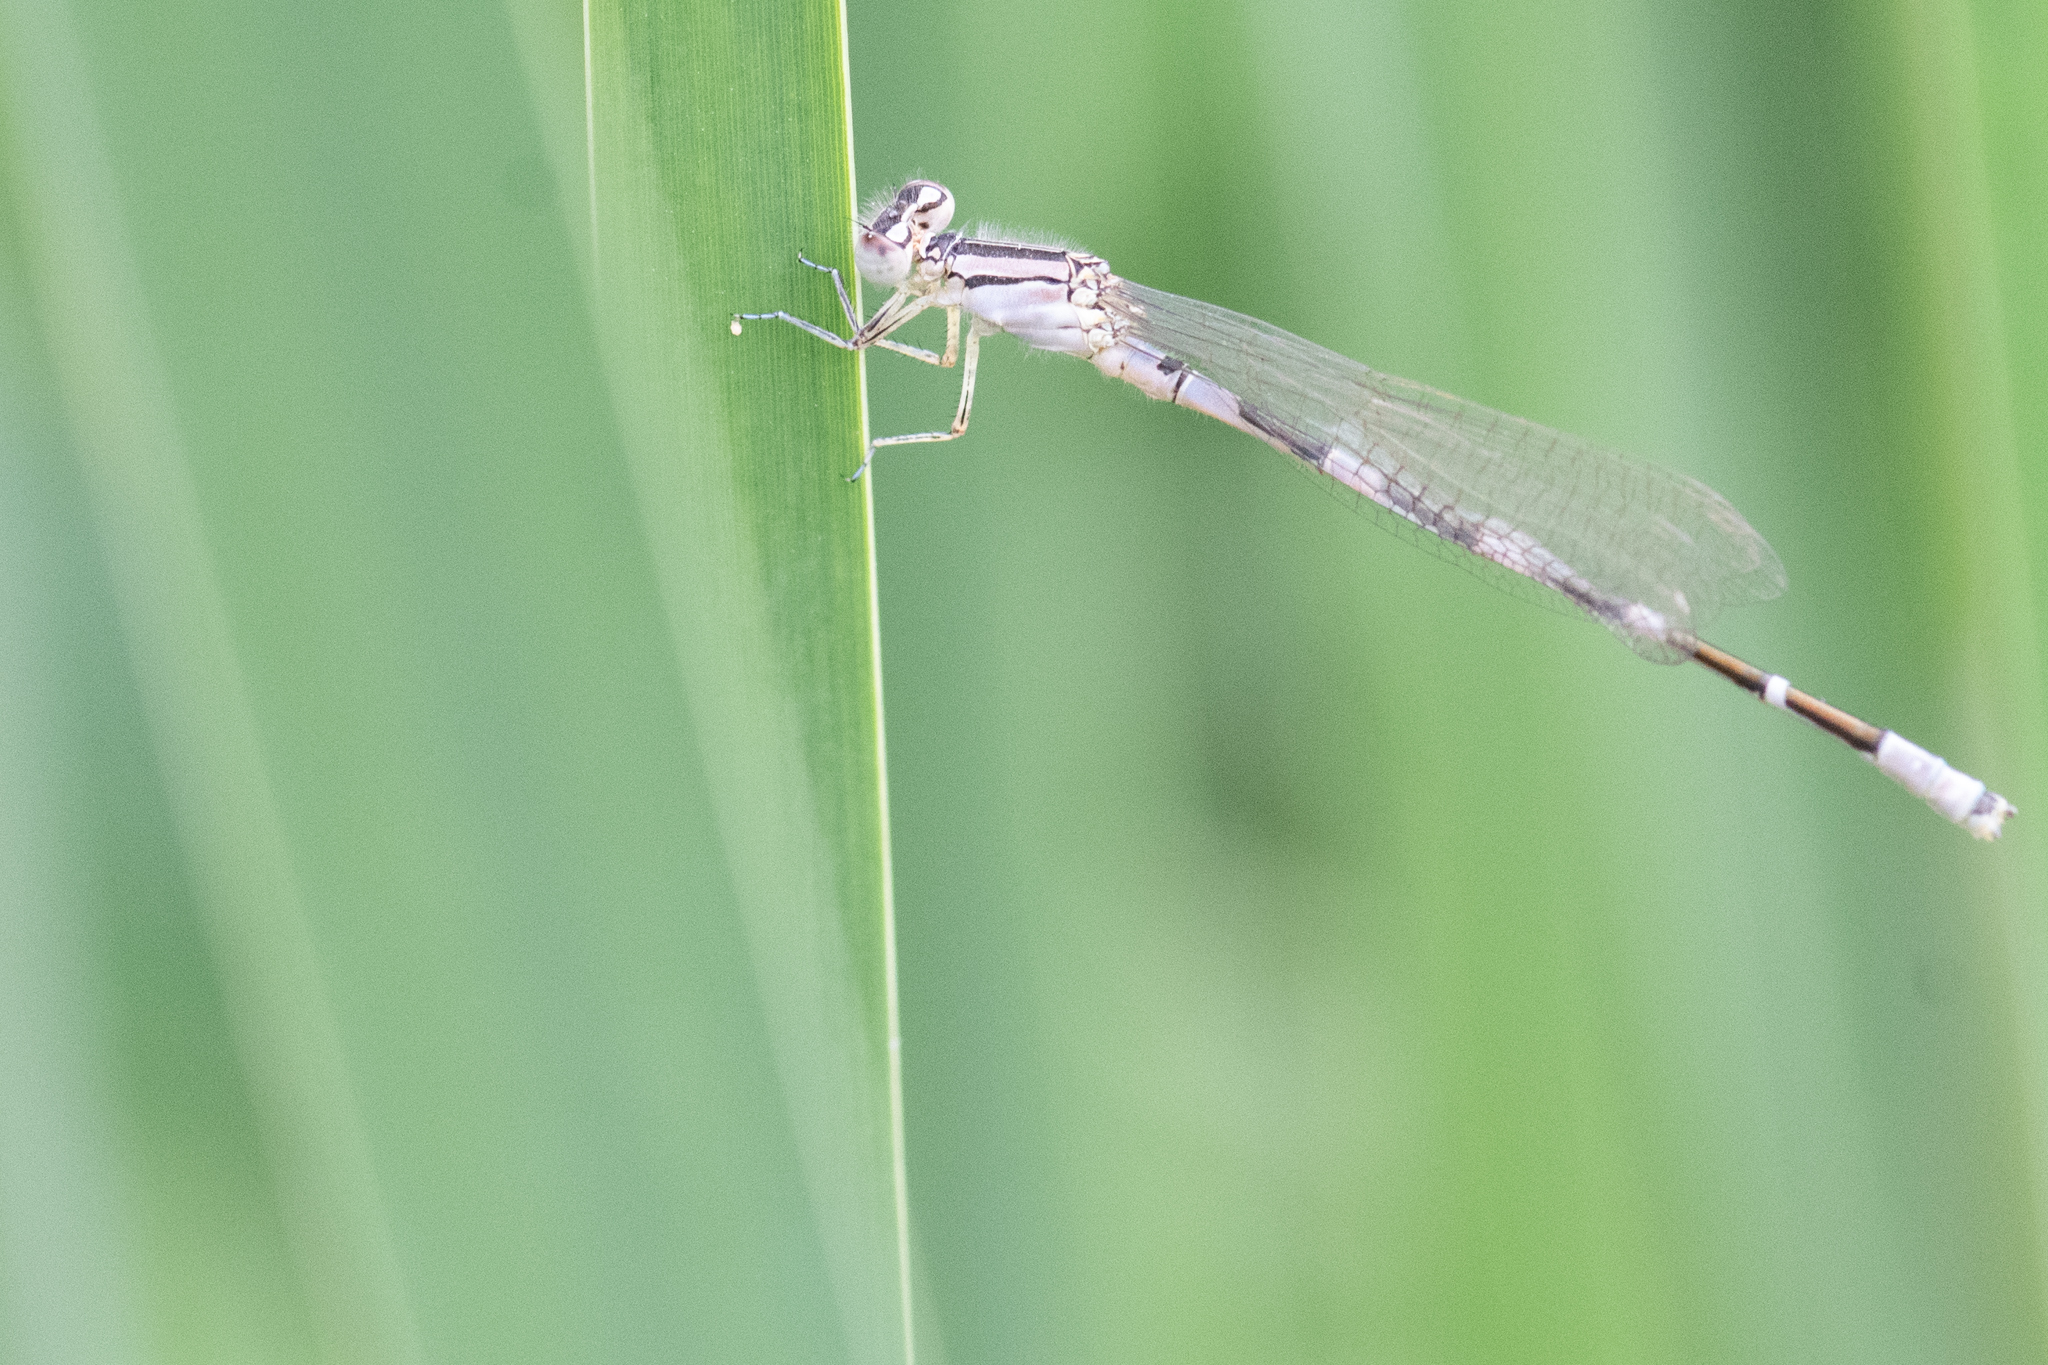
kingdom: Animalia
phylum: Arthropoda
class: Insecta
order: Odonata
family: Coenagrionidae
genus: Enallagma
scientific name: Enallagma carunculatum
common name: Tule bluet
